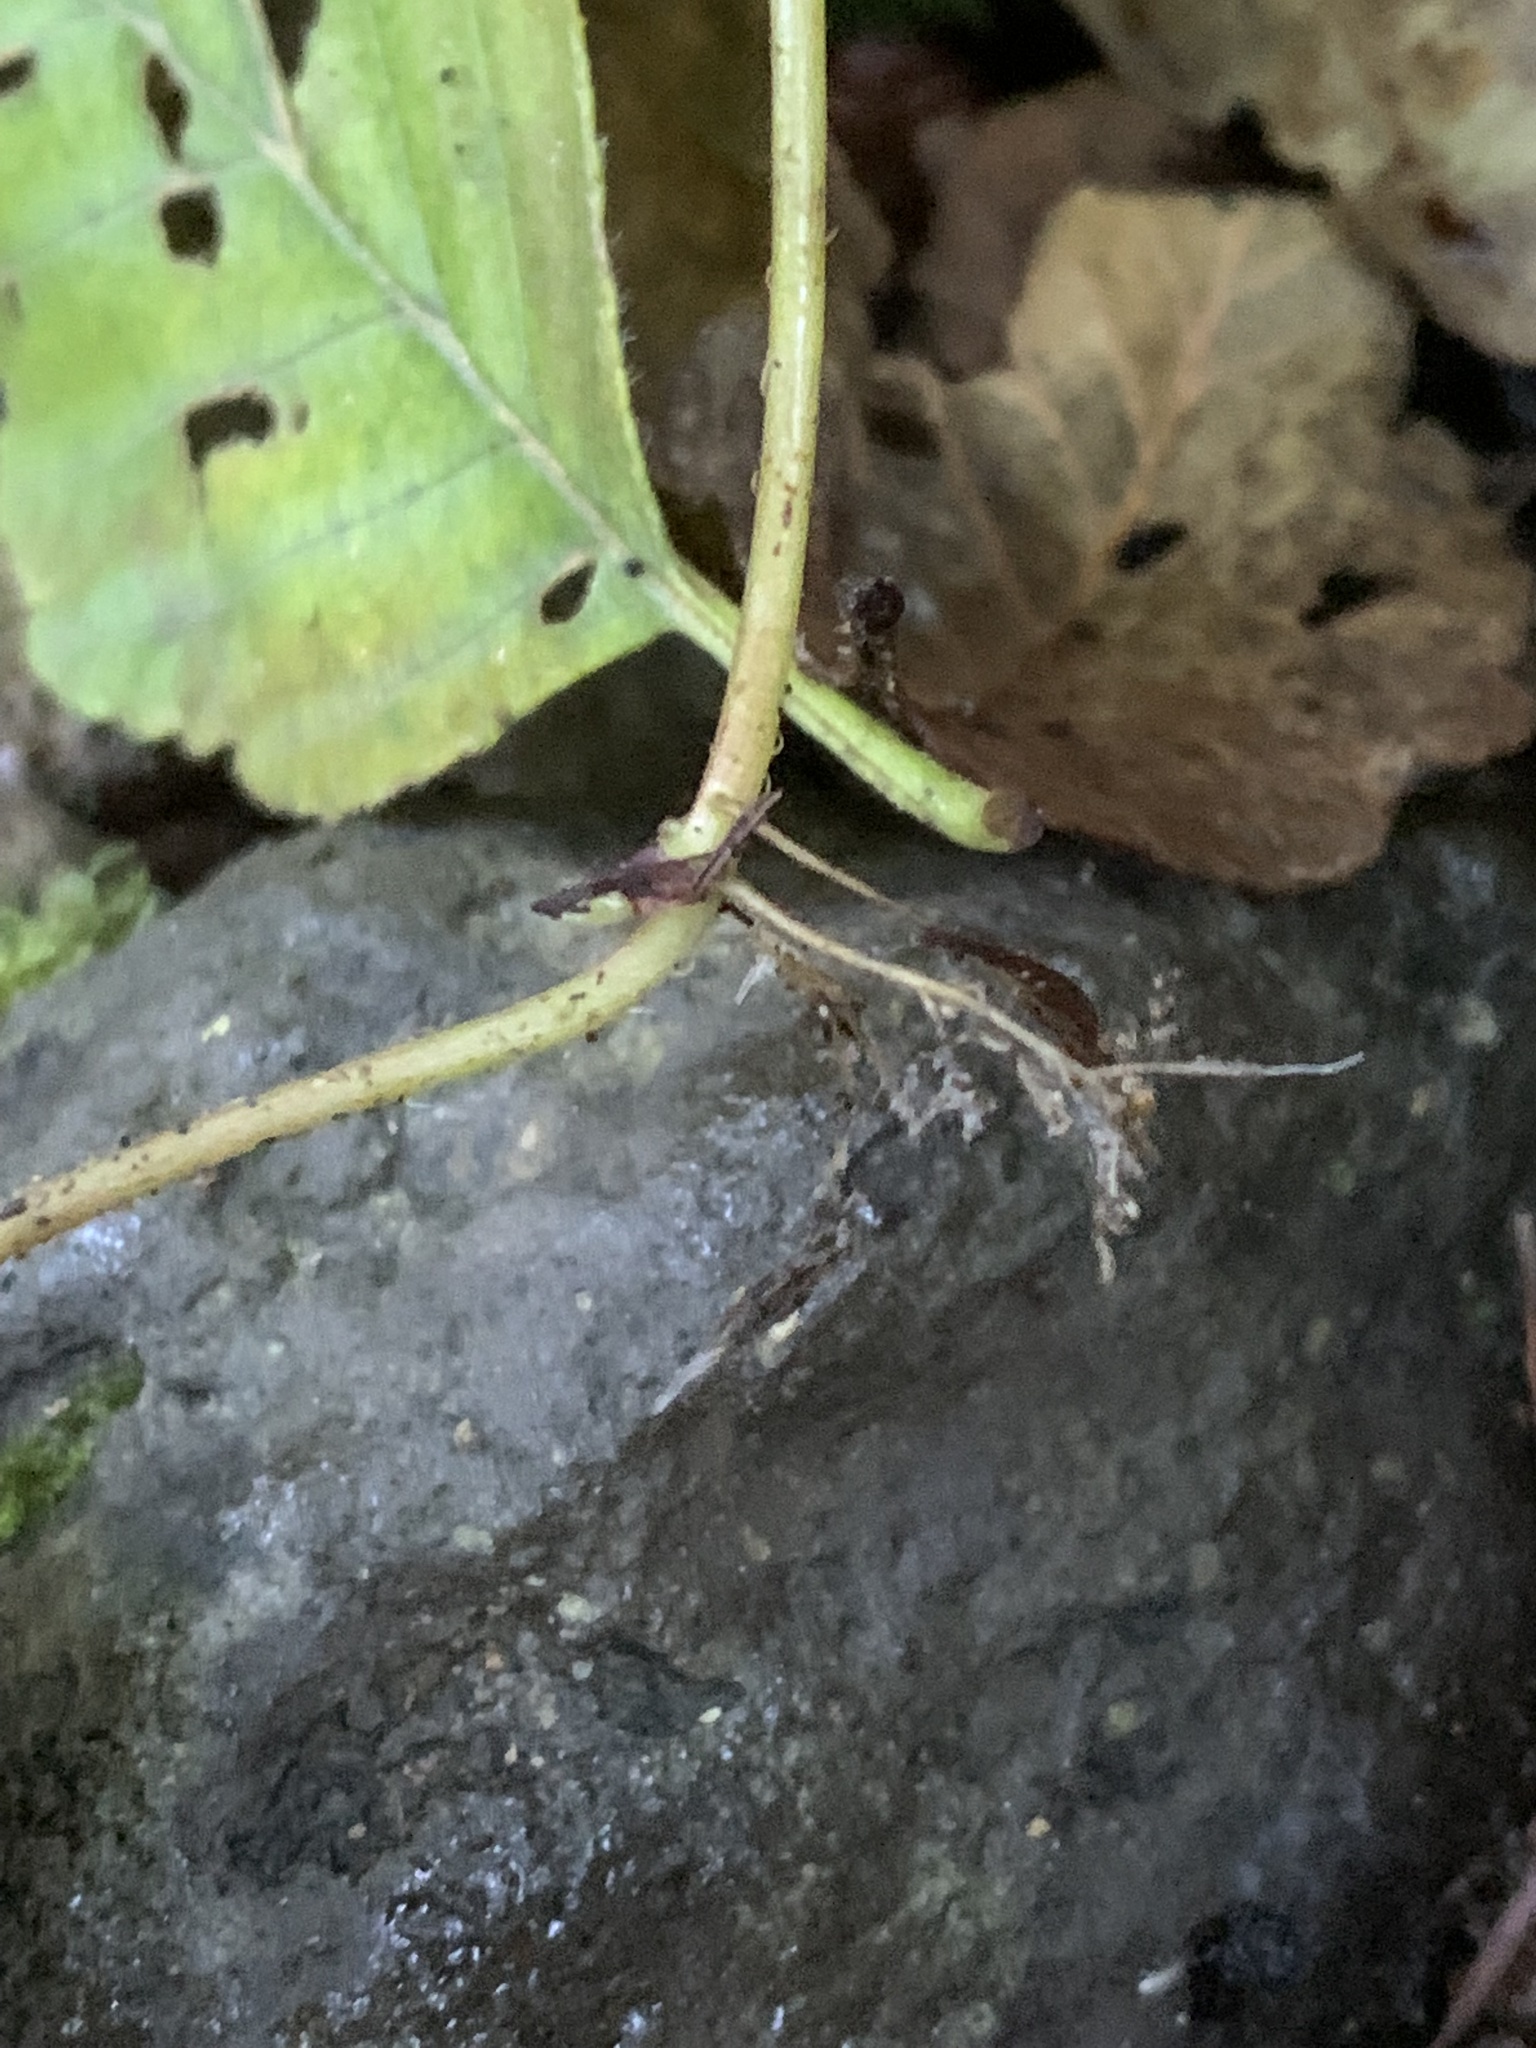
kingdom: Plantae
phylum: Tracheophyta
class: Magnoliopsida
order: Saxifragales
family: Saxifragaceae
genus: Mitellastra
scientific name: Mitellastra caulescens
